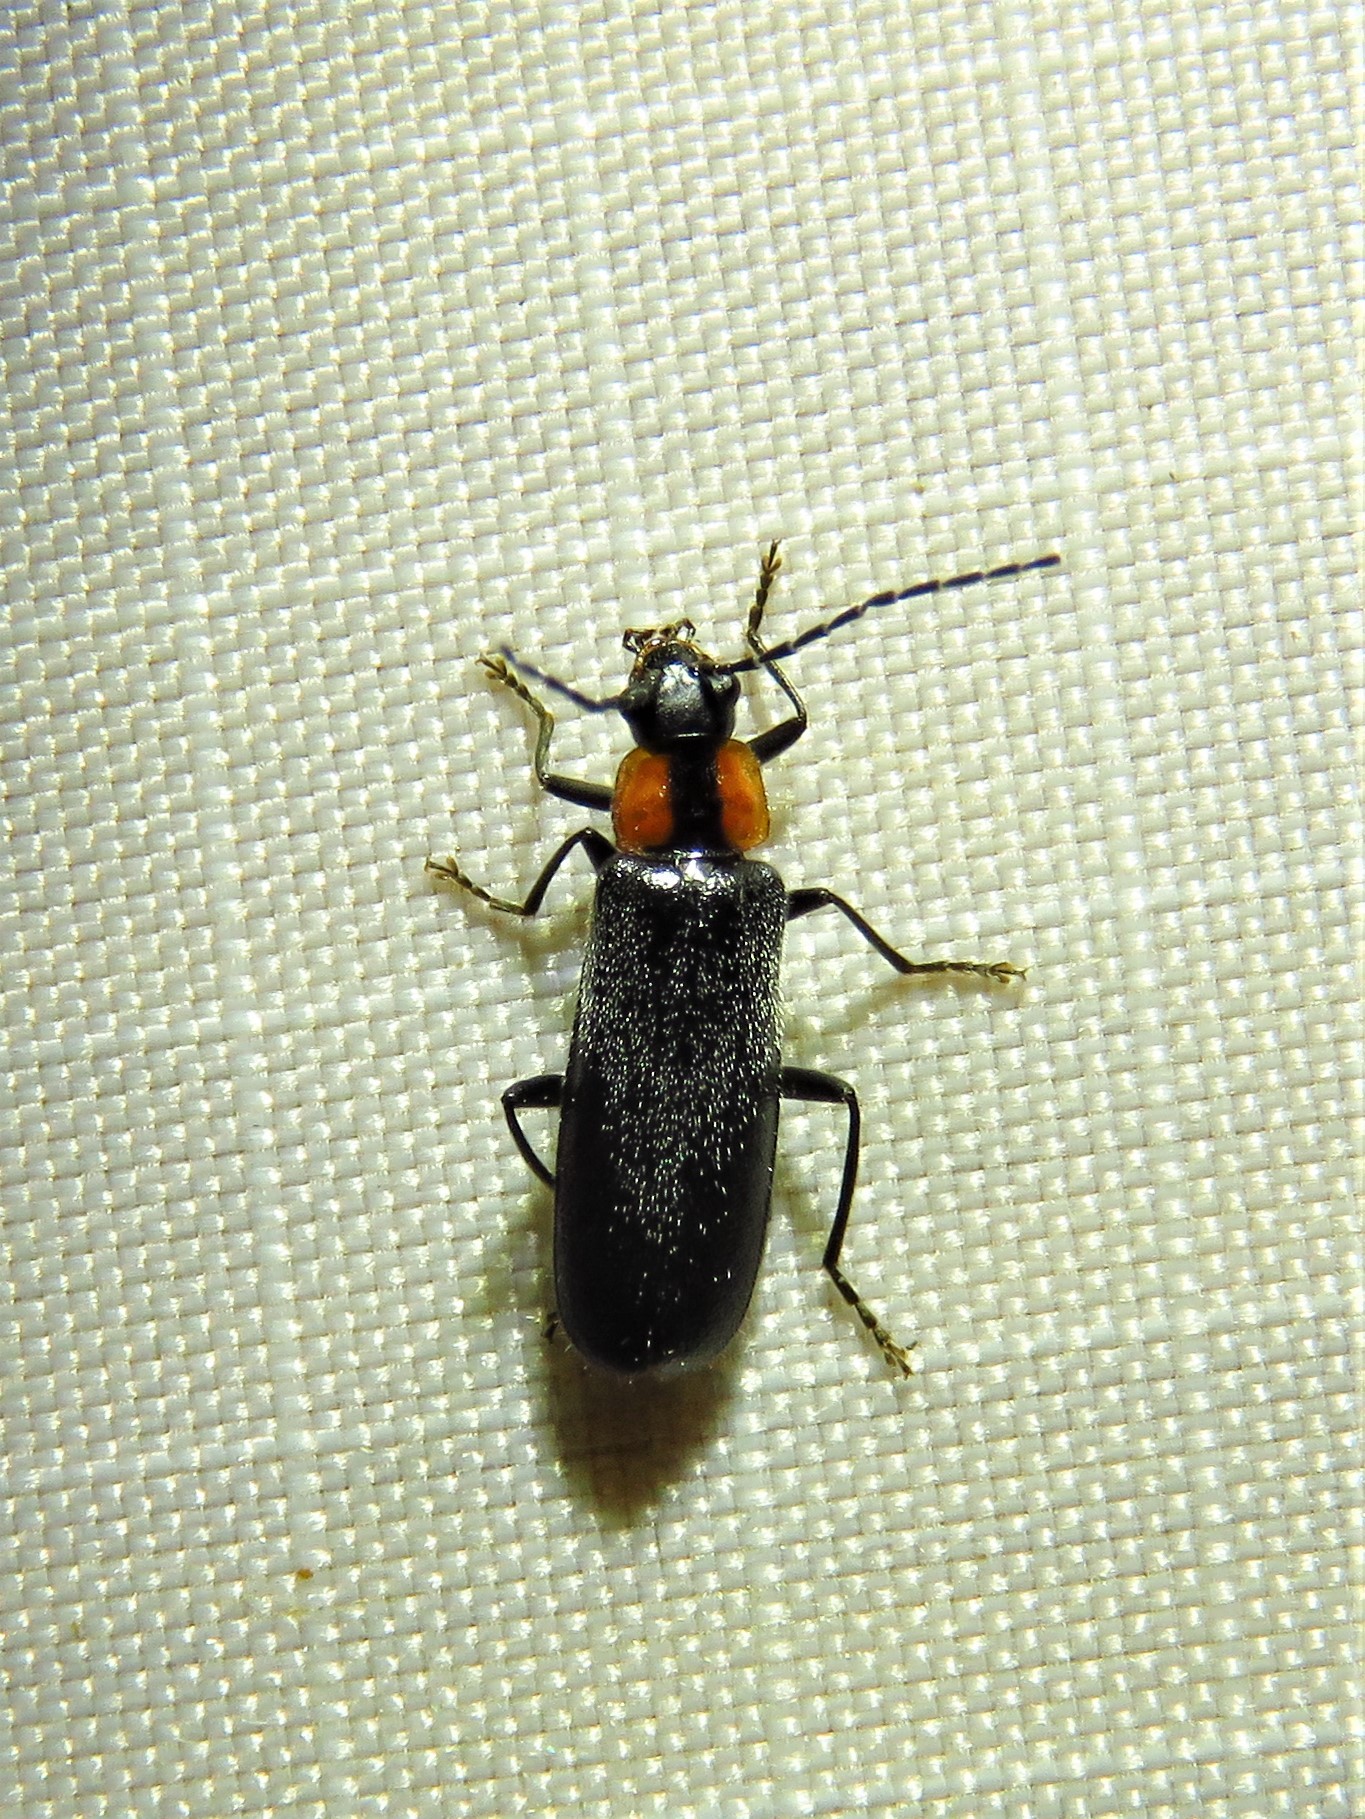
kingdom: Animalia
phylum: Arthropoda
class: Insecta
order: Coleoptera
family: Cantharidae
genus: Rhagonycha
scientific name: Rhagonycha lineola
